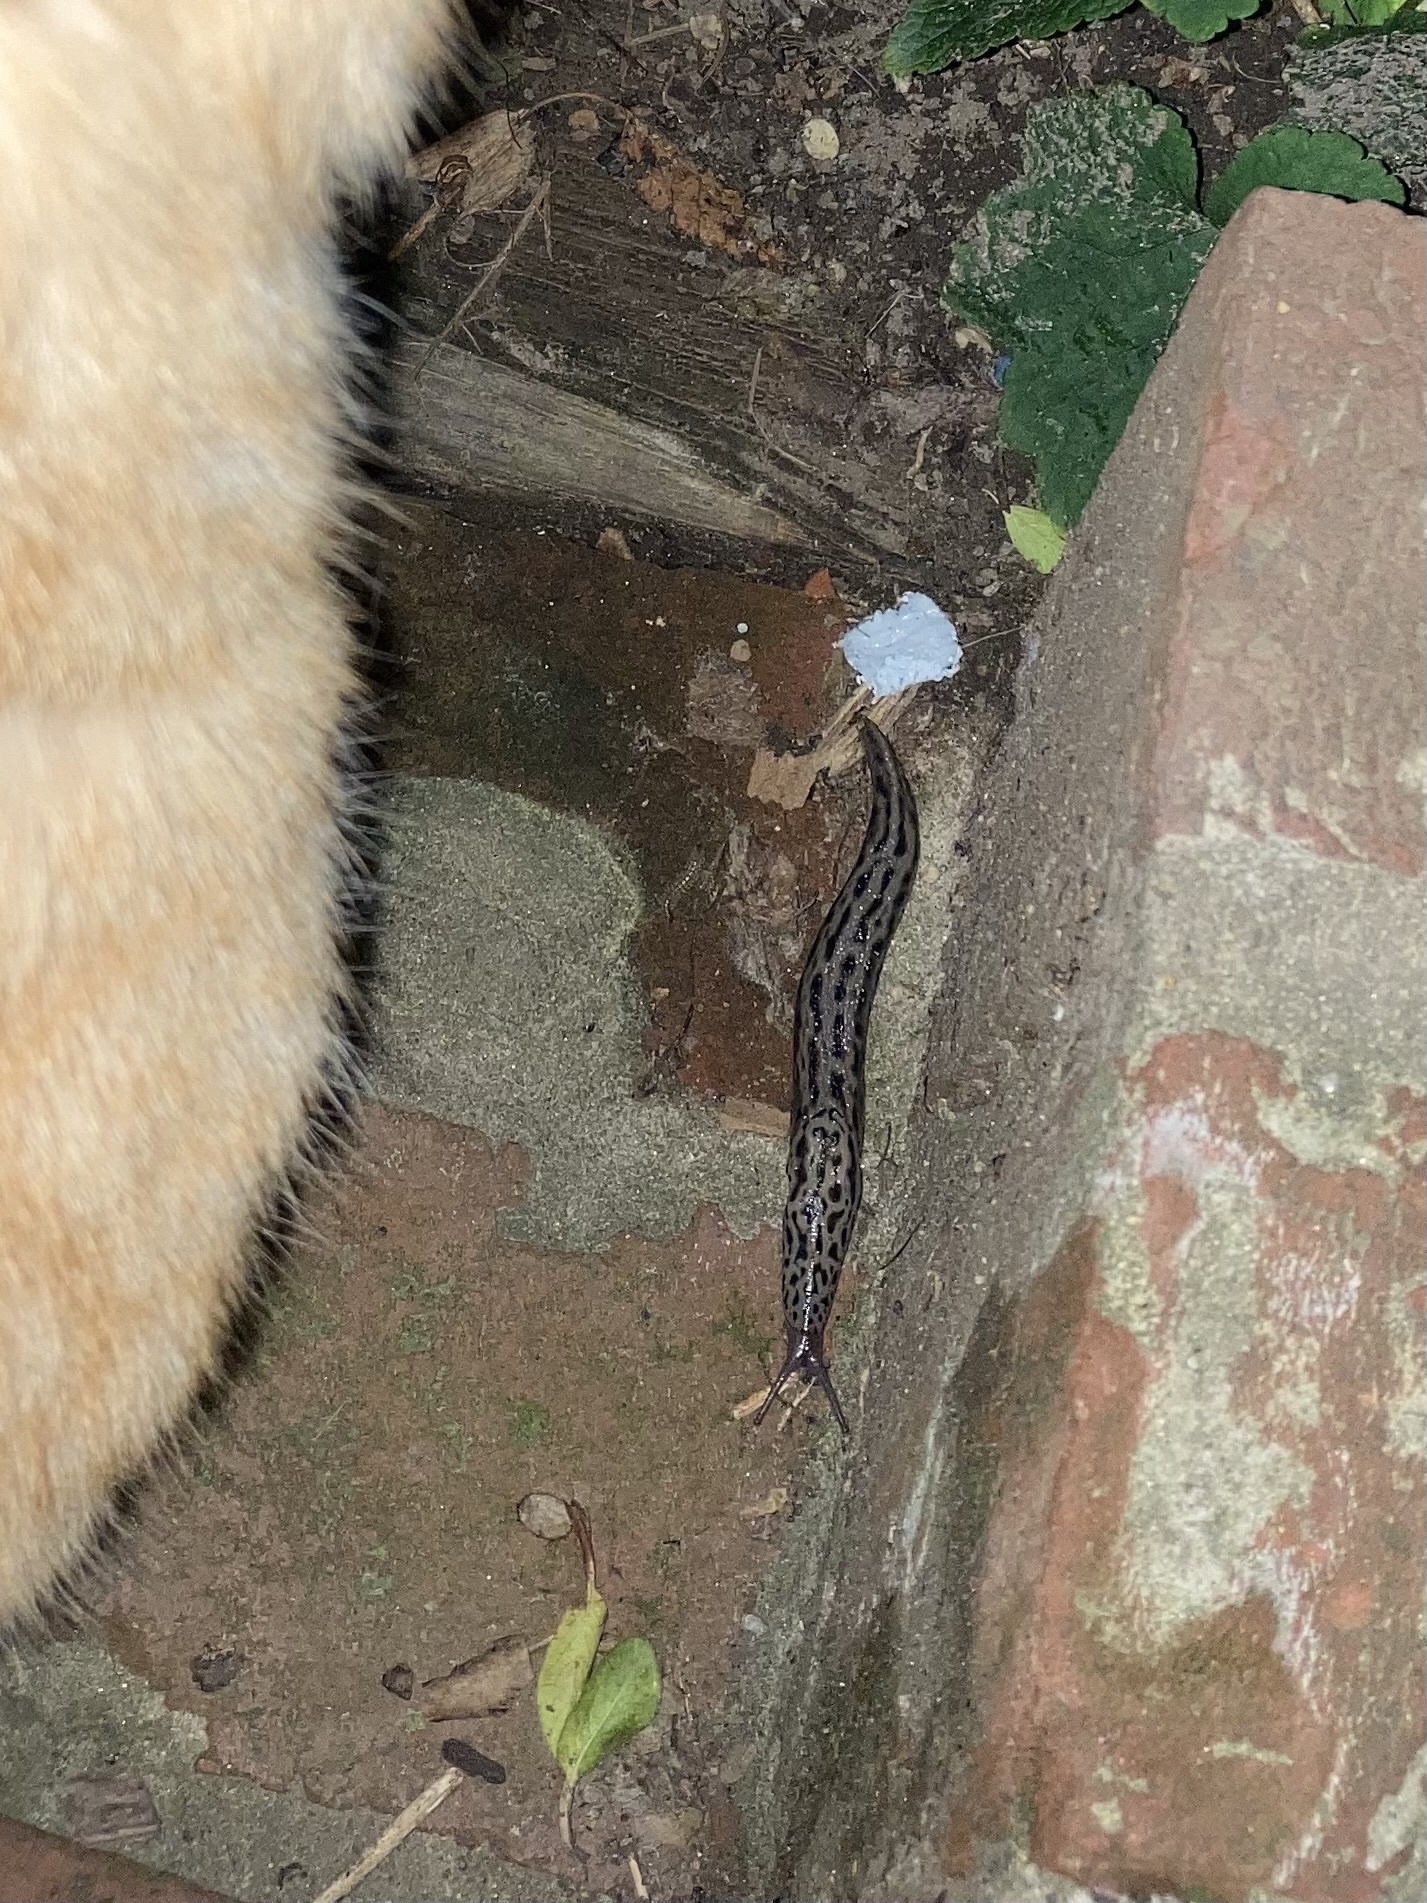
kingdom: Animalia
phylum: Mollusca
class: Gastropoda
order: Stylommatophora
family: Limacidae
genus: Limax
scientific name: Limax maximus
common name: Great grey slug
